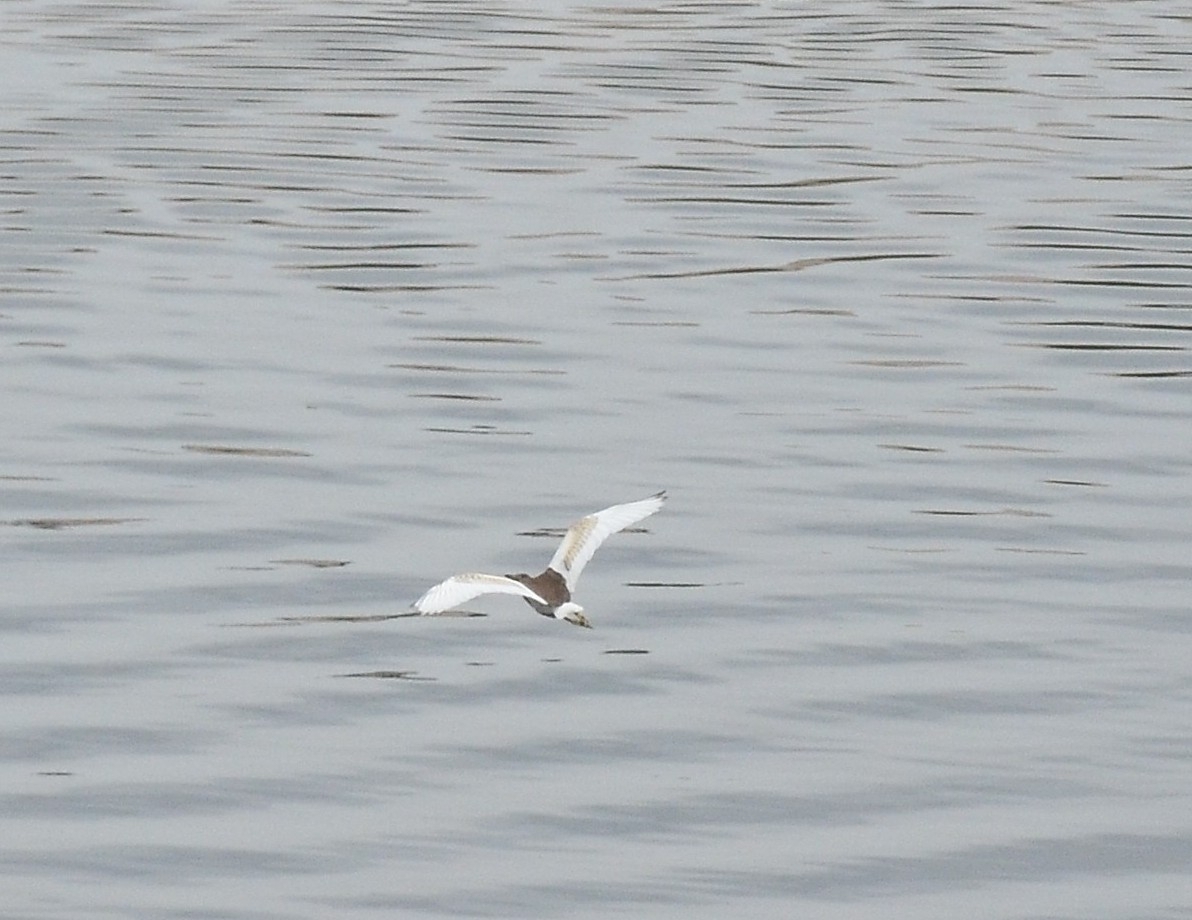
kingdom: Animalia
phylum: Chordata
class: Aves
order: Pelecaniformes
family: Ardeidae
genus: Ardeola
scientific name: Ardeola grayii
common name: Indian pond heron
